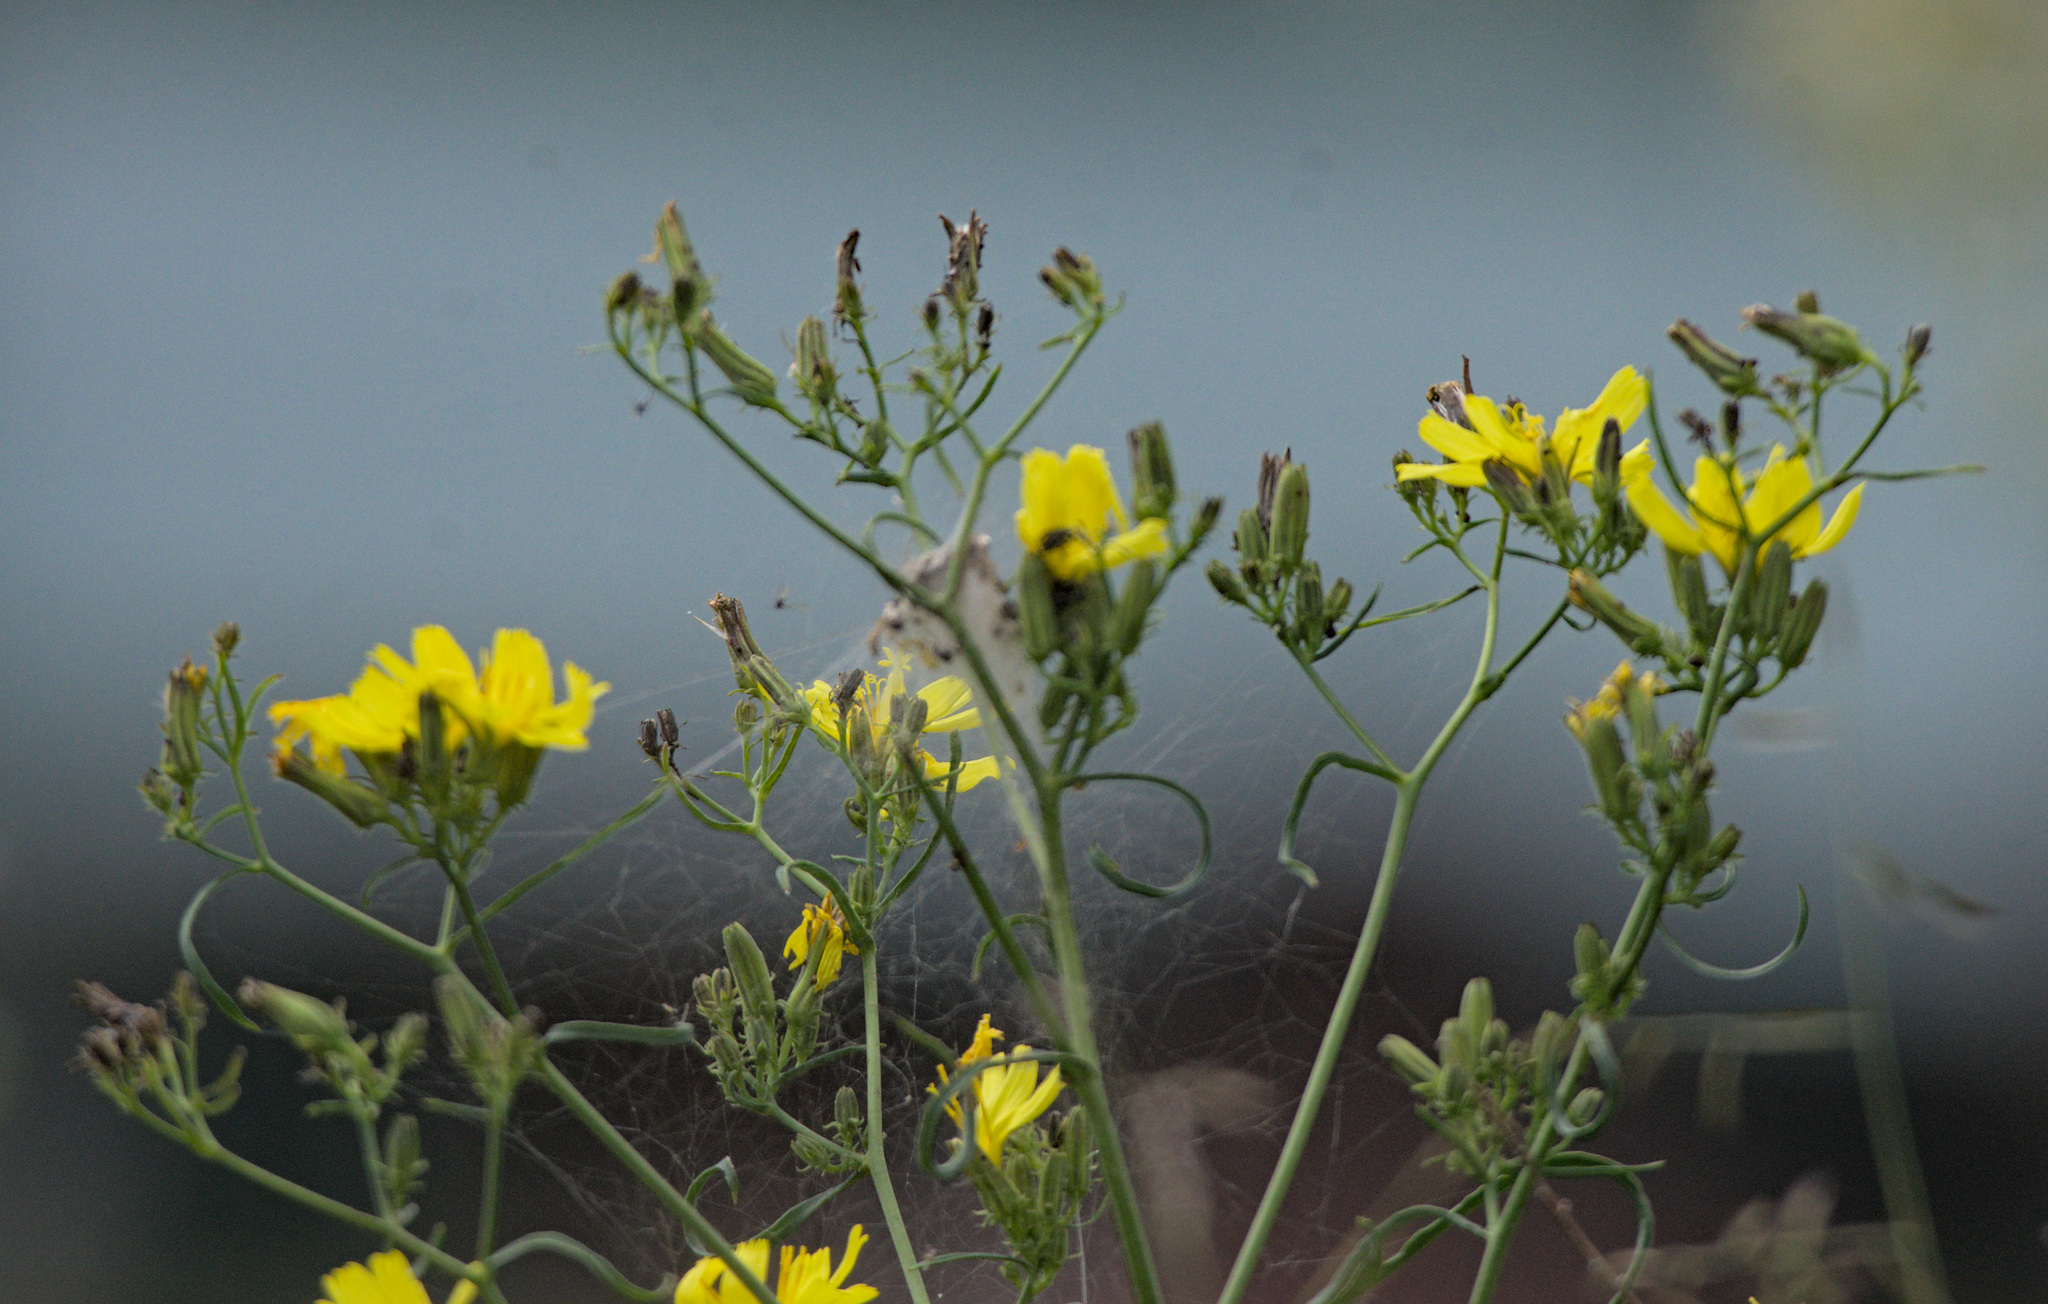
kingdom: Plantae
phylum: Tracheophyta
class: Magnoliopsida
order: Asterales
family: Asteraceae
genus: Crepidiastrum
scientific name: Crepidiastrum tenuifolium
